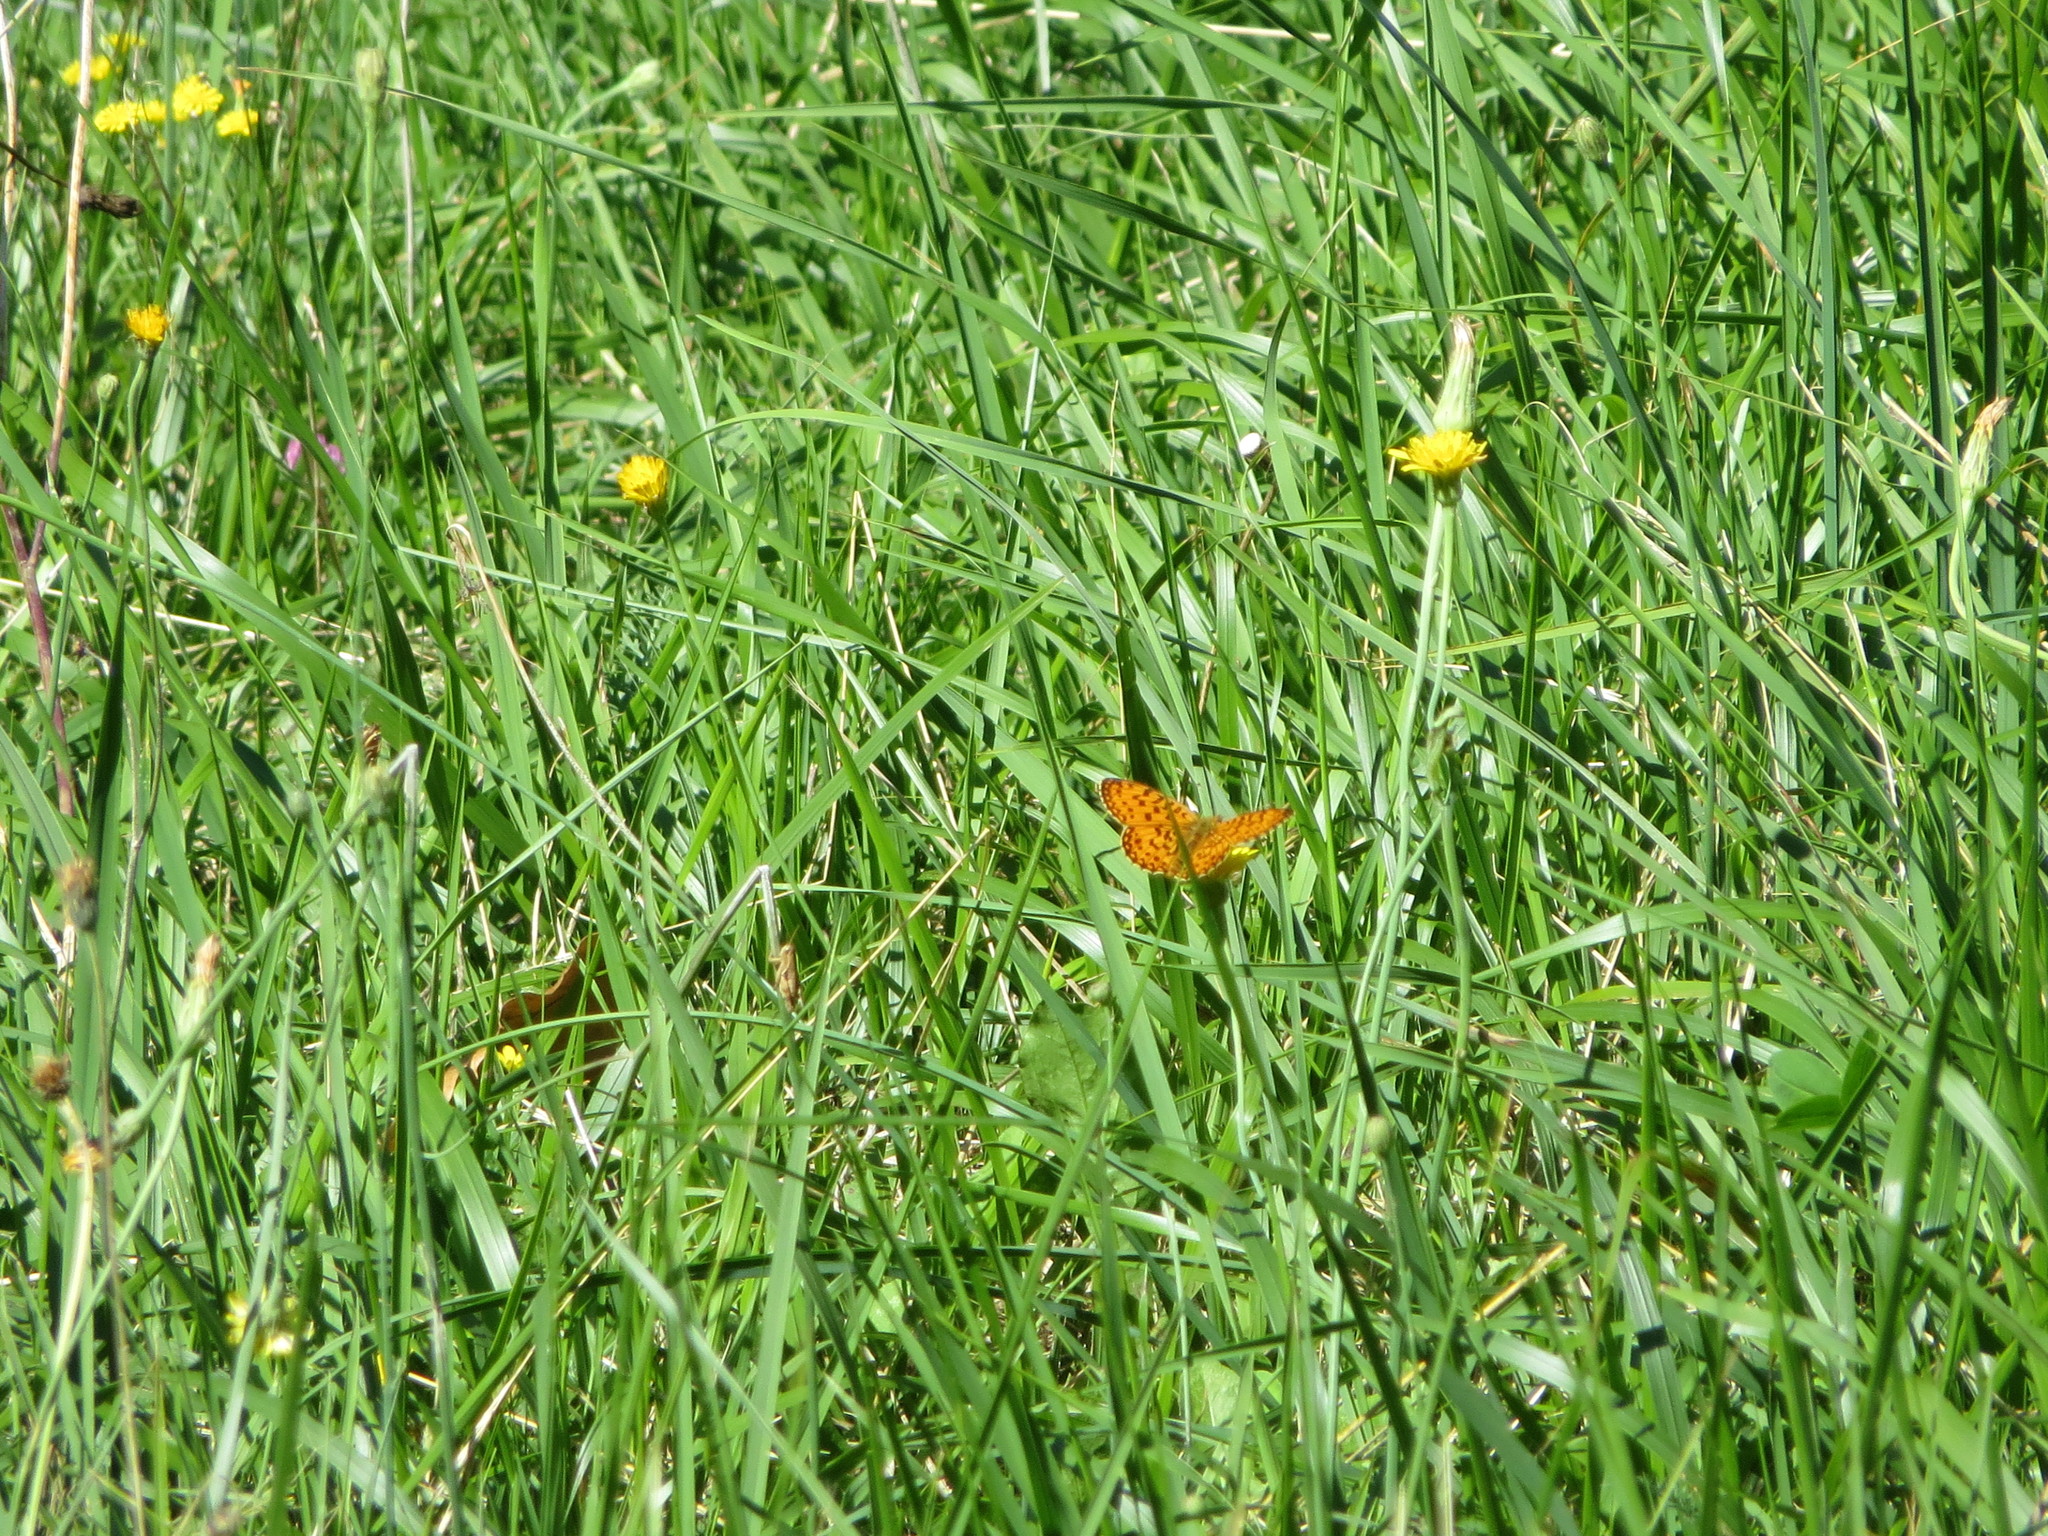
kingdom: Animalia
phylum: Arthropoda
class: Insecta
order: Lepidoptera
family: Nymphalidae
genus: Boloria
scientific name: Boloria selene
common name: Small pearl-bordered fritillary
